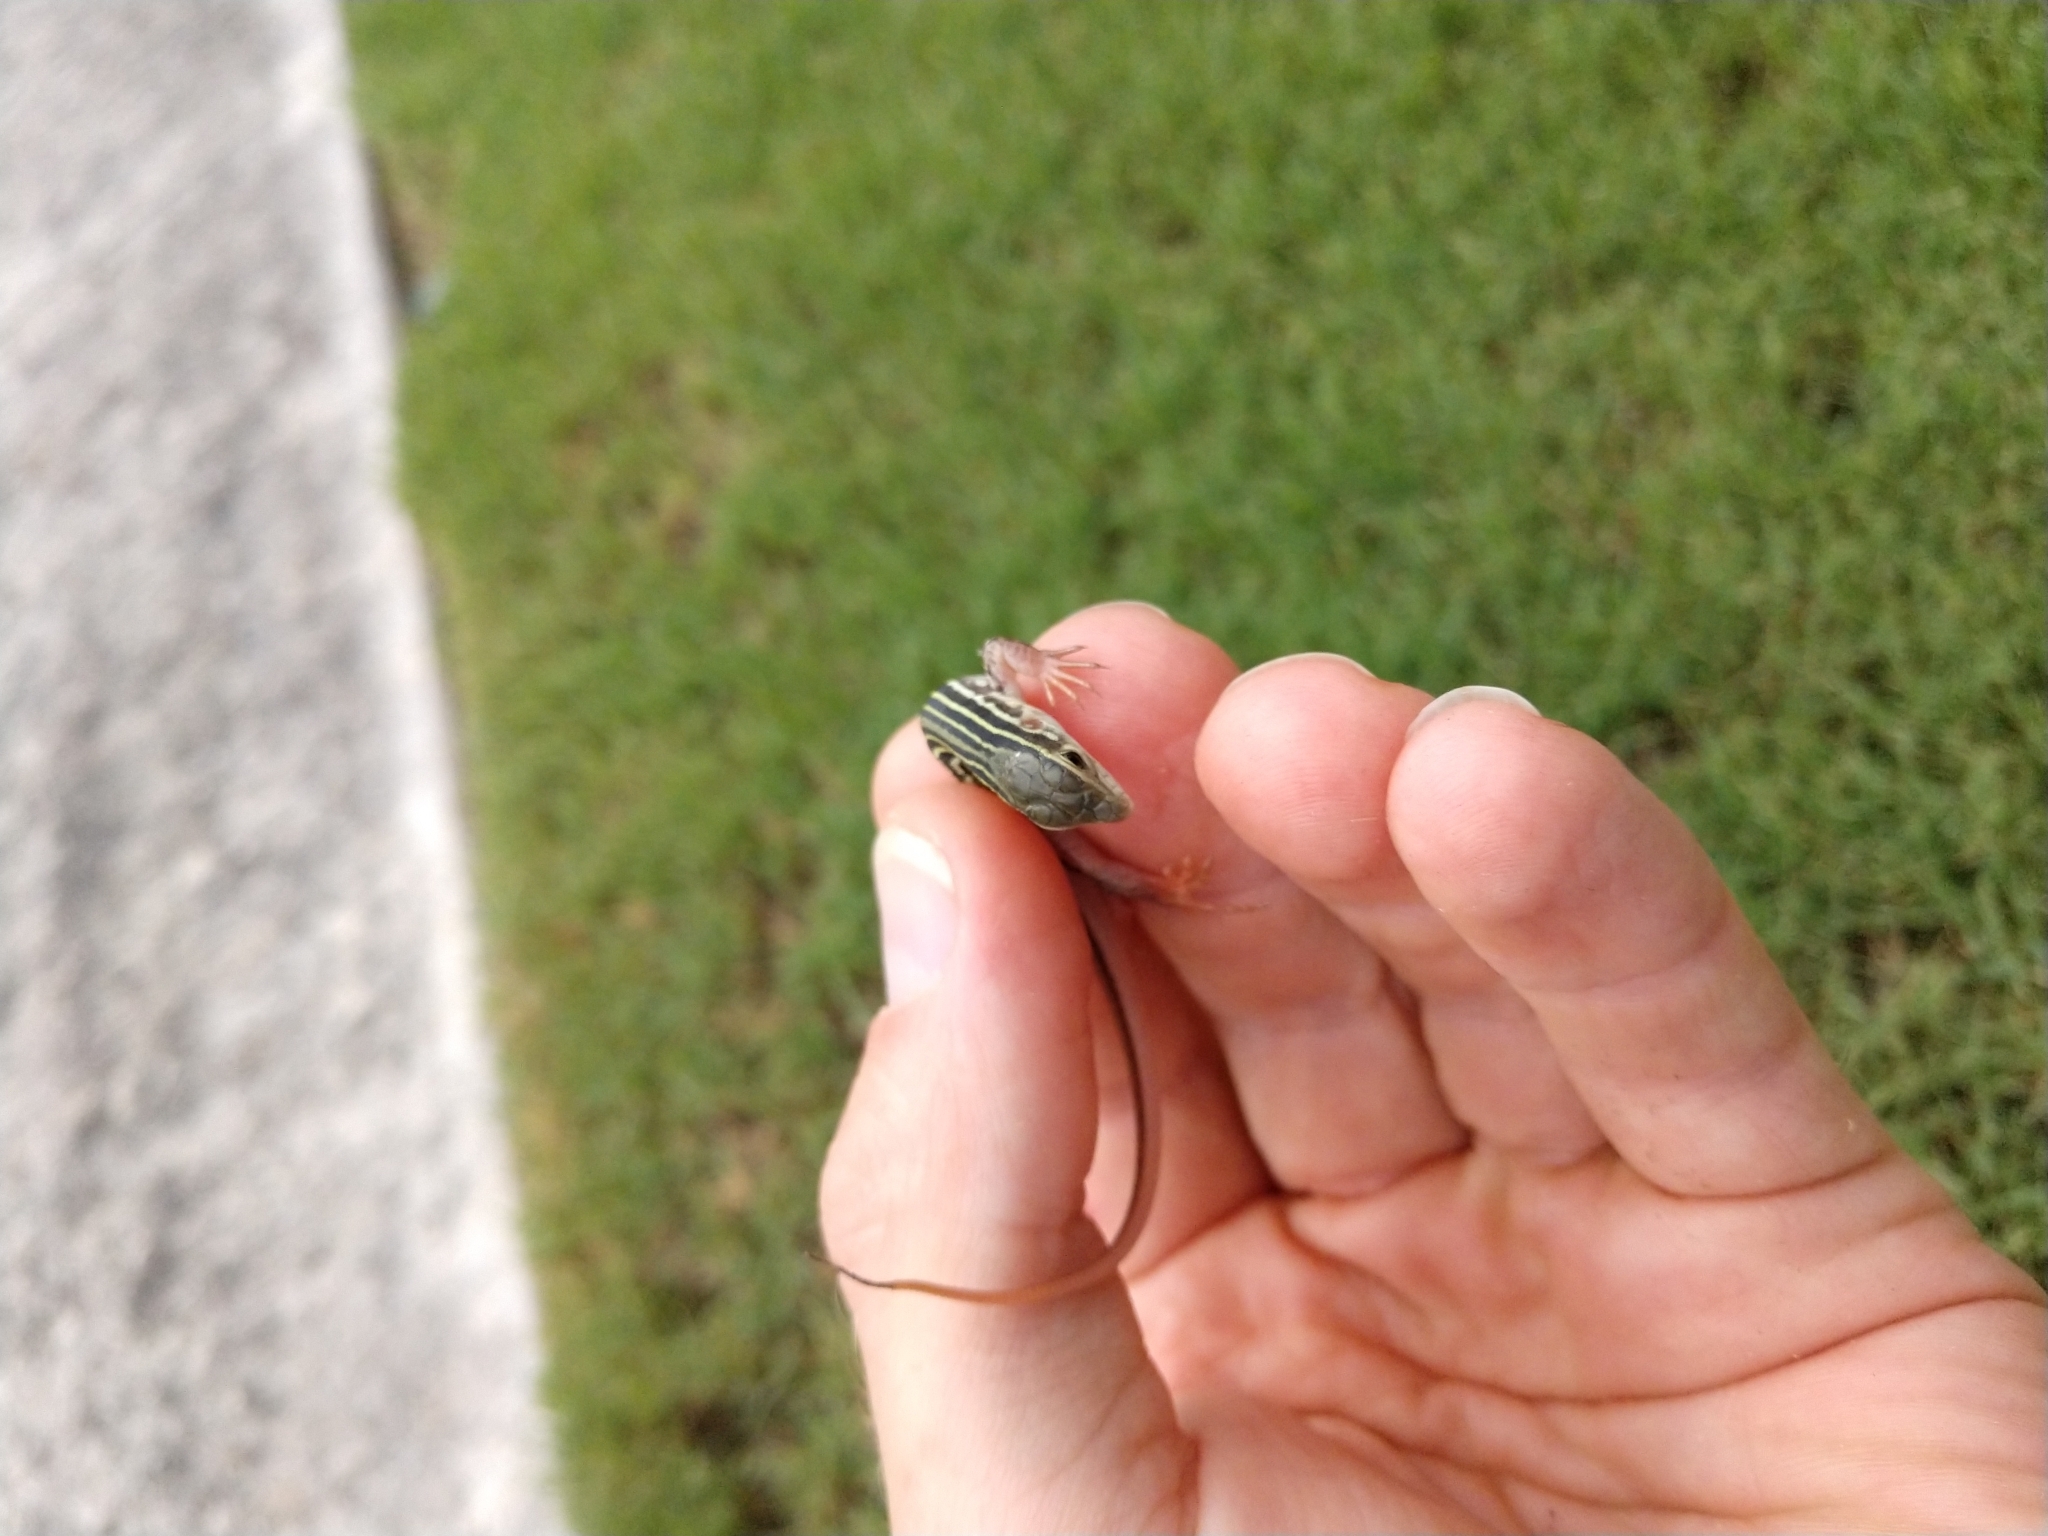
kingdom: Animalia
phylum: Chordata
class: Squamata
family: Teiidae
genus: Aspidoscelis
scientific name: Aspidoscelis gularis
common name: Eastern spotted whiptail
